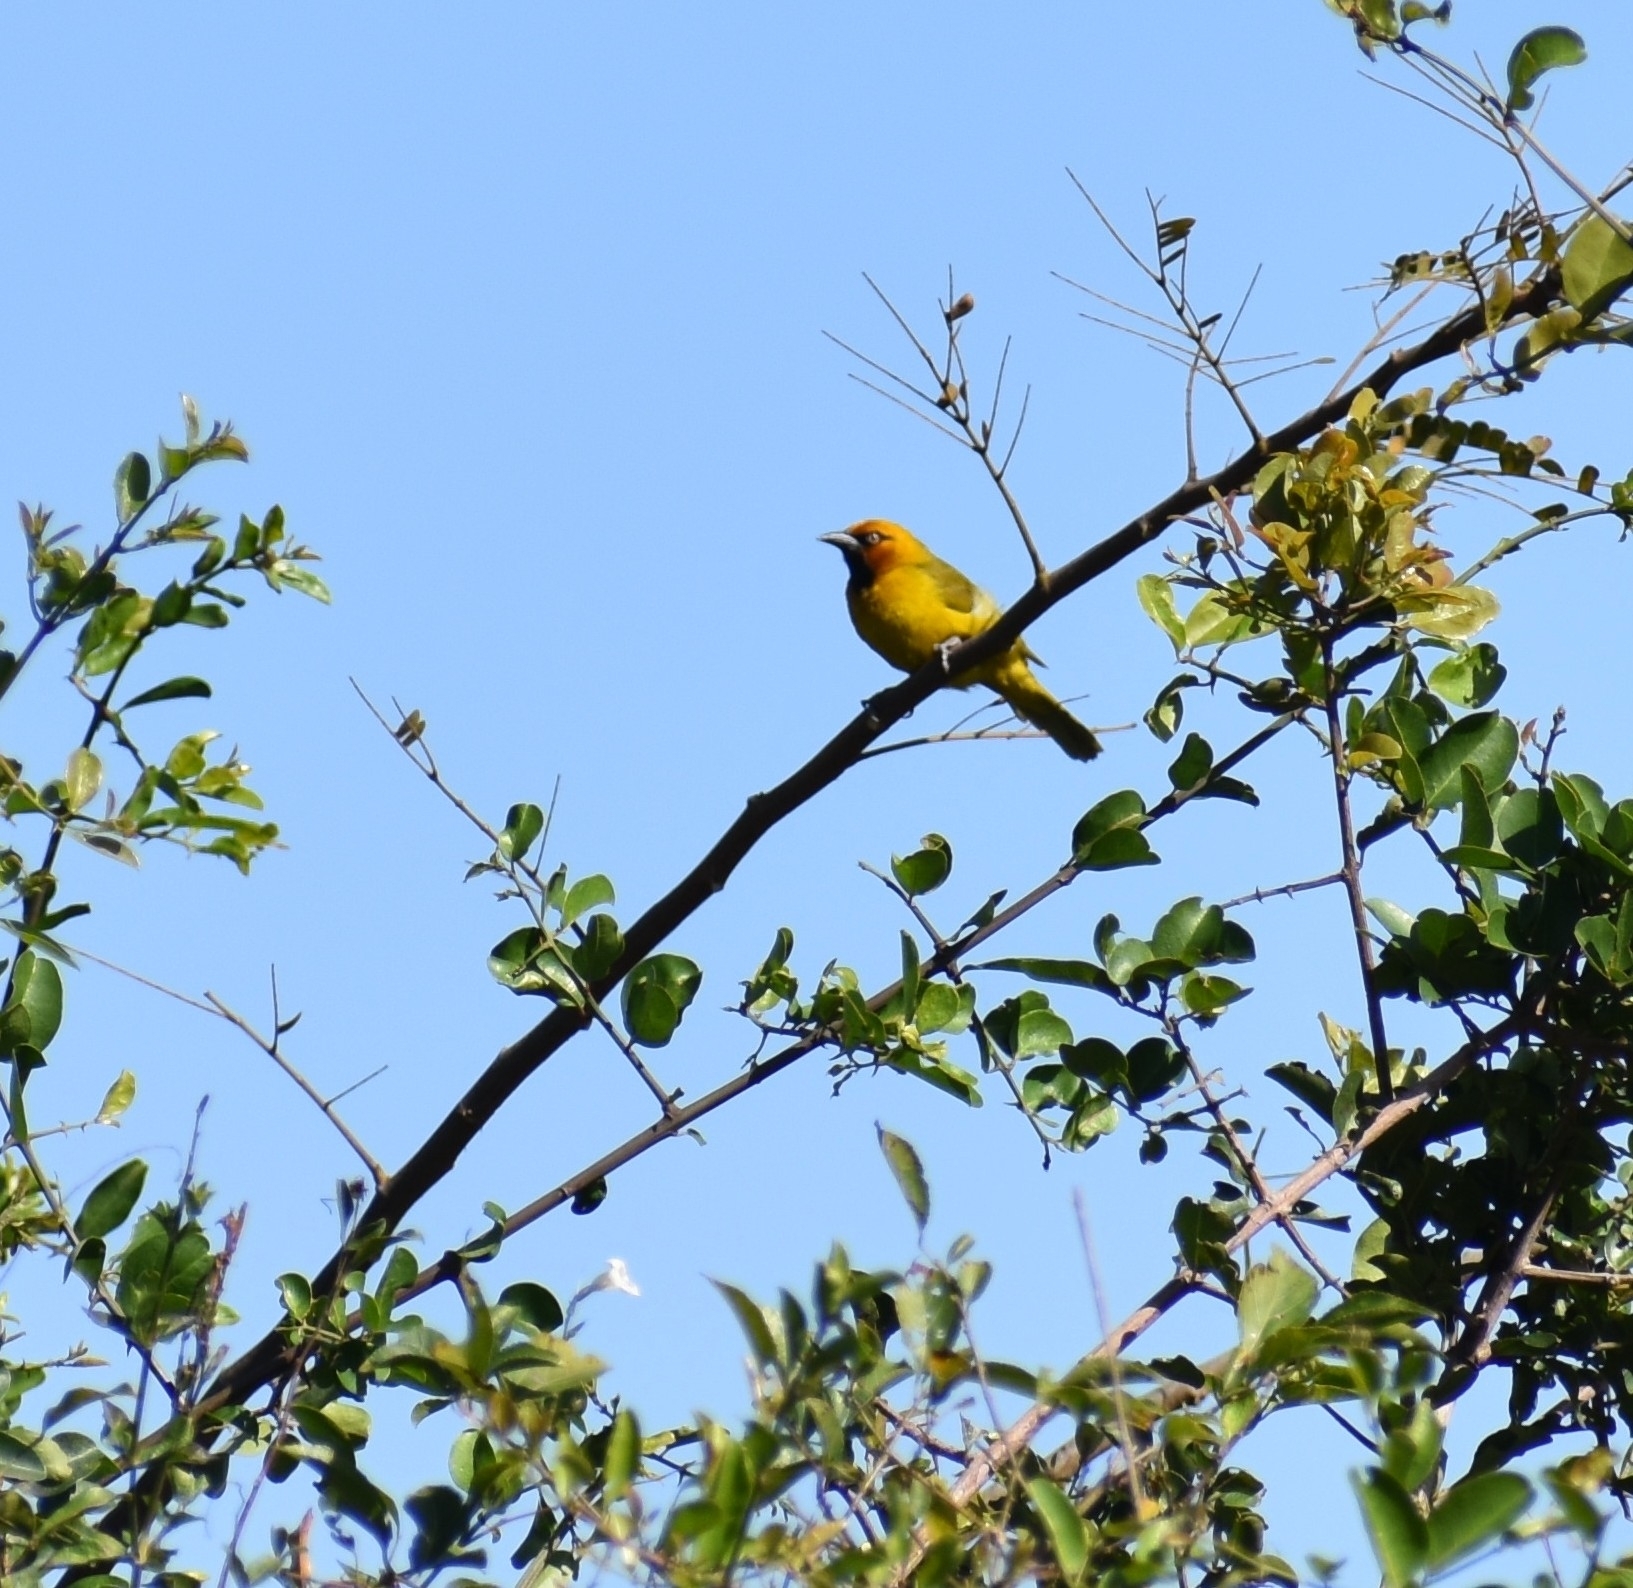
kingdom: Animalia
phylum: Chordata
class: Aves
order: Passeriformes
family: Ploceidae
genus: Ploceus
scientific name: Ploceus ocularis
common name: Spectacled weaver
